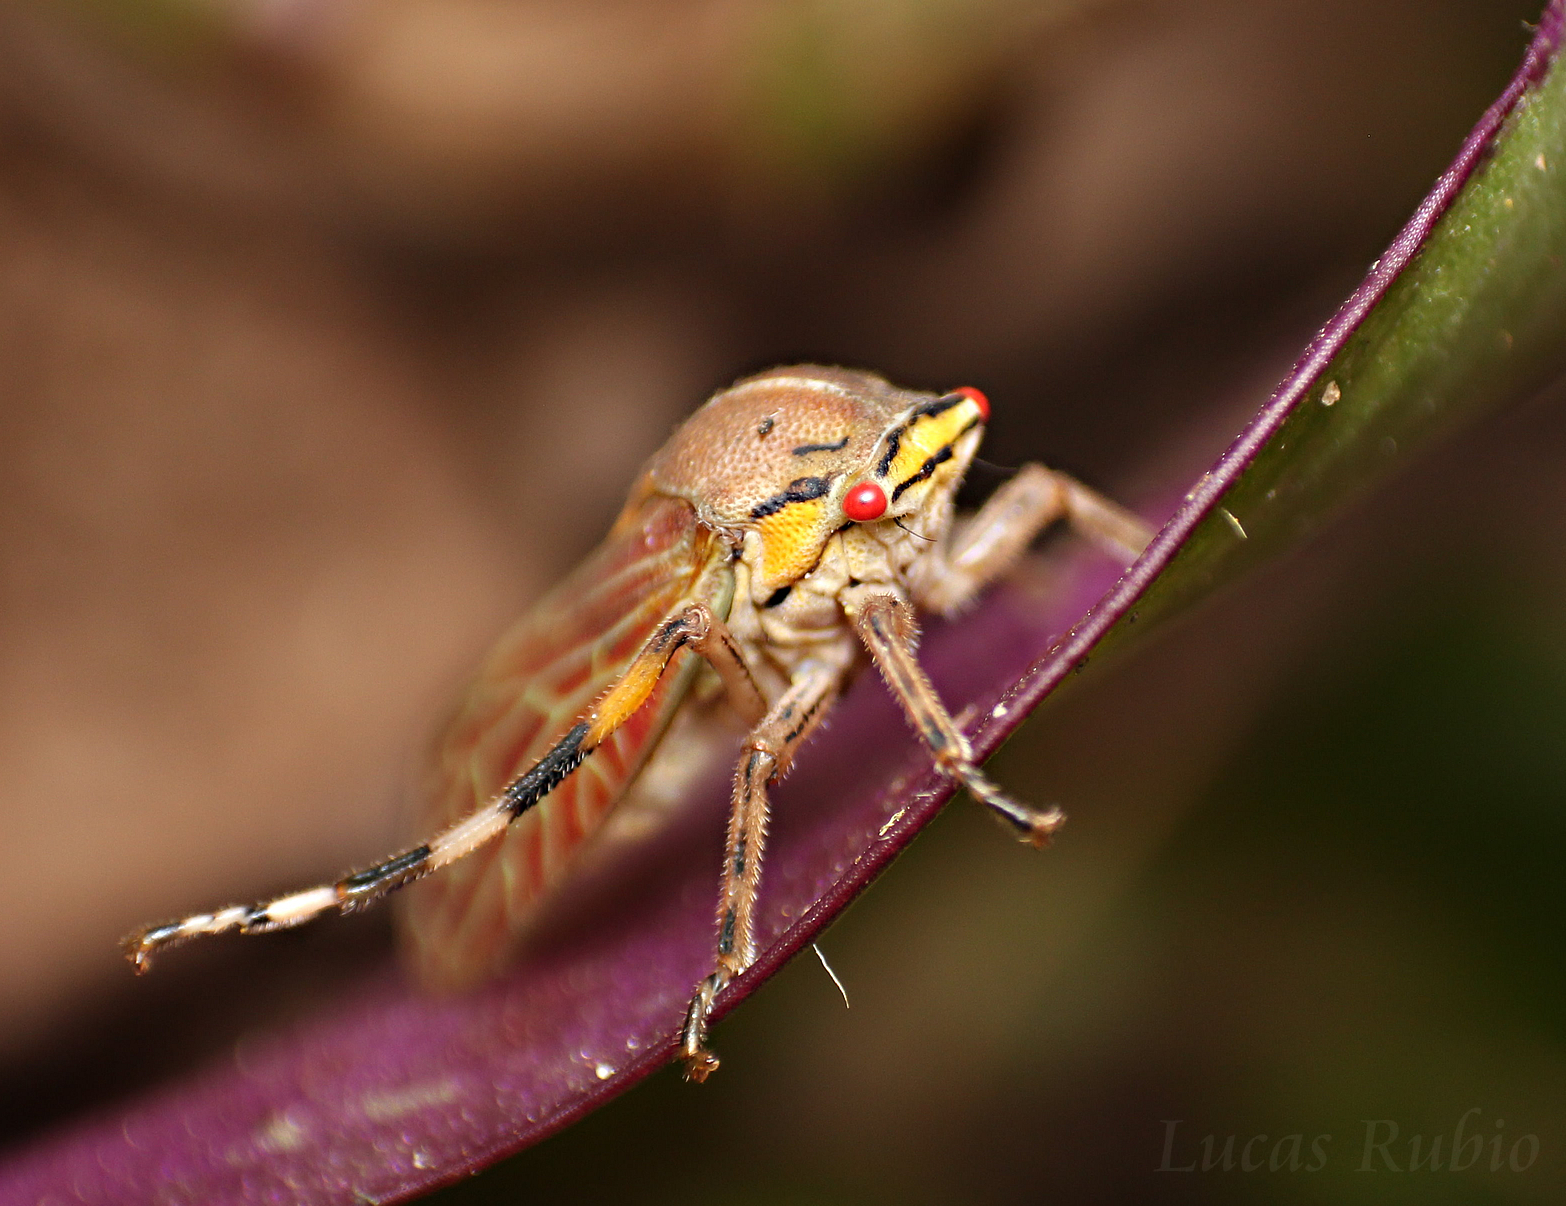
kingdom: Animalia
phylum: Arthropoda
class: Insecta
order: Hemiptera
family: Aetalionidae
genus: Aetalion
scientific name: Aetalion reticulatum
